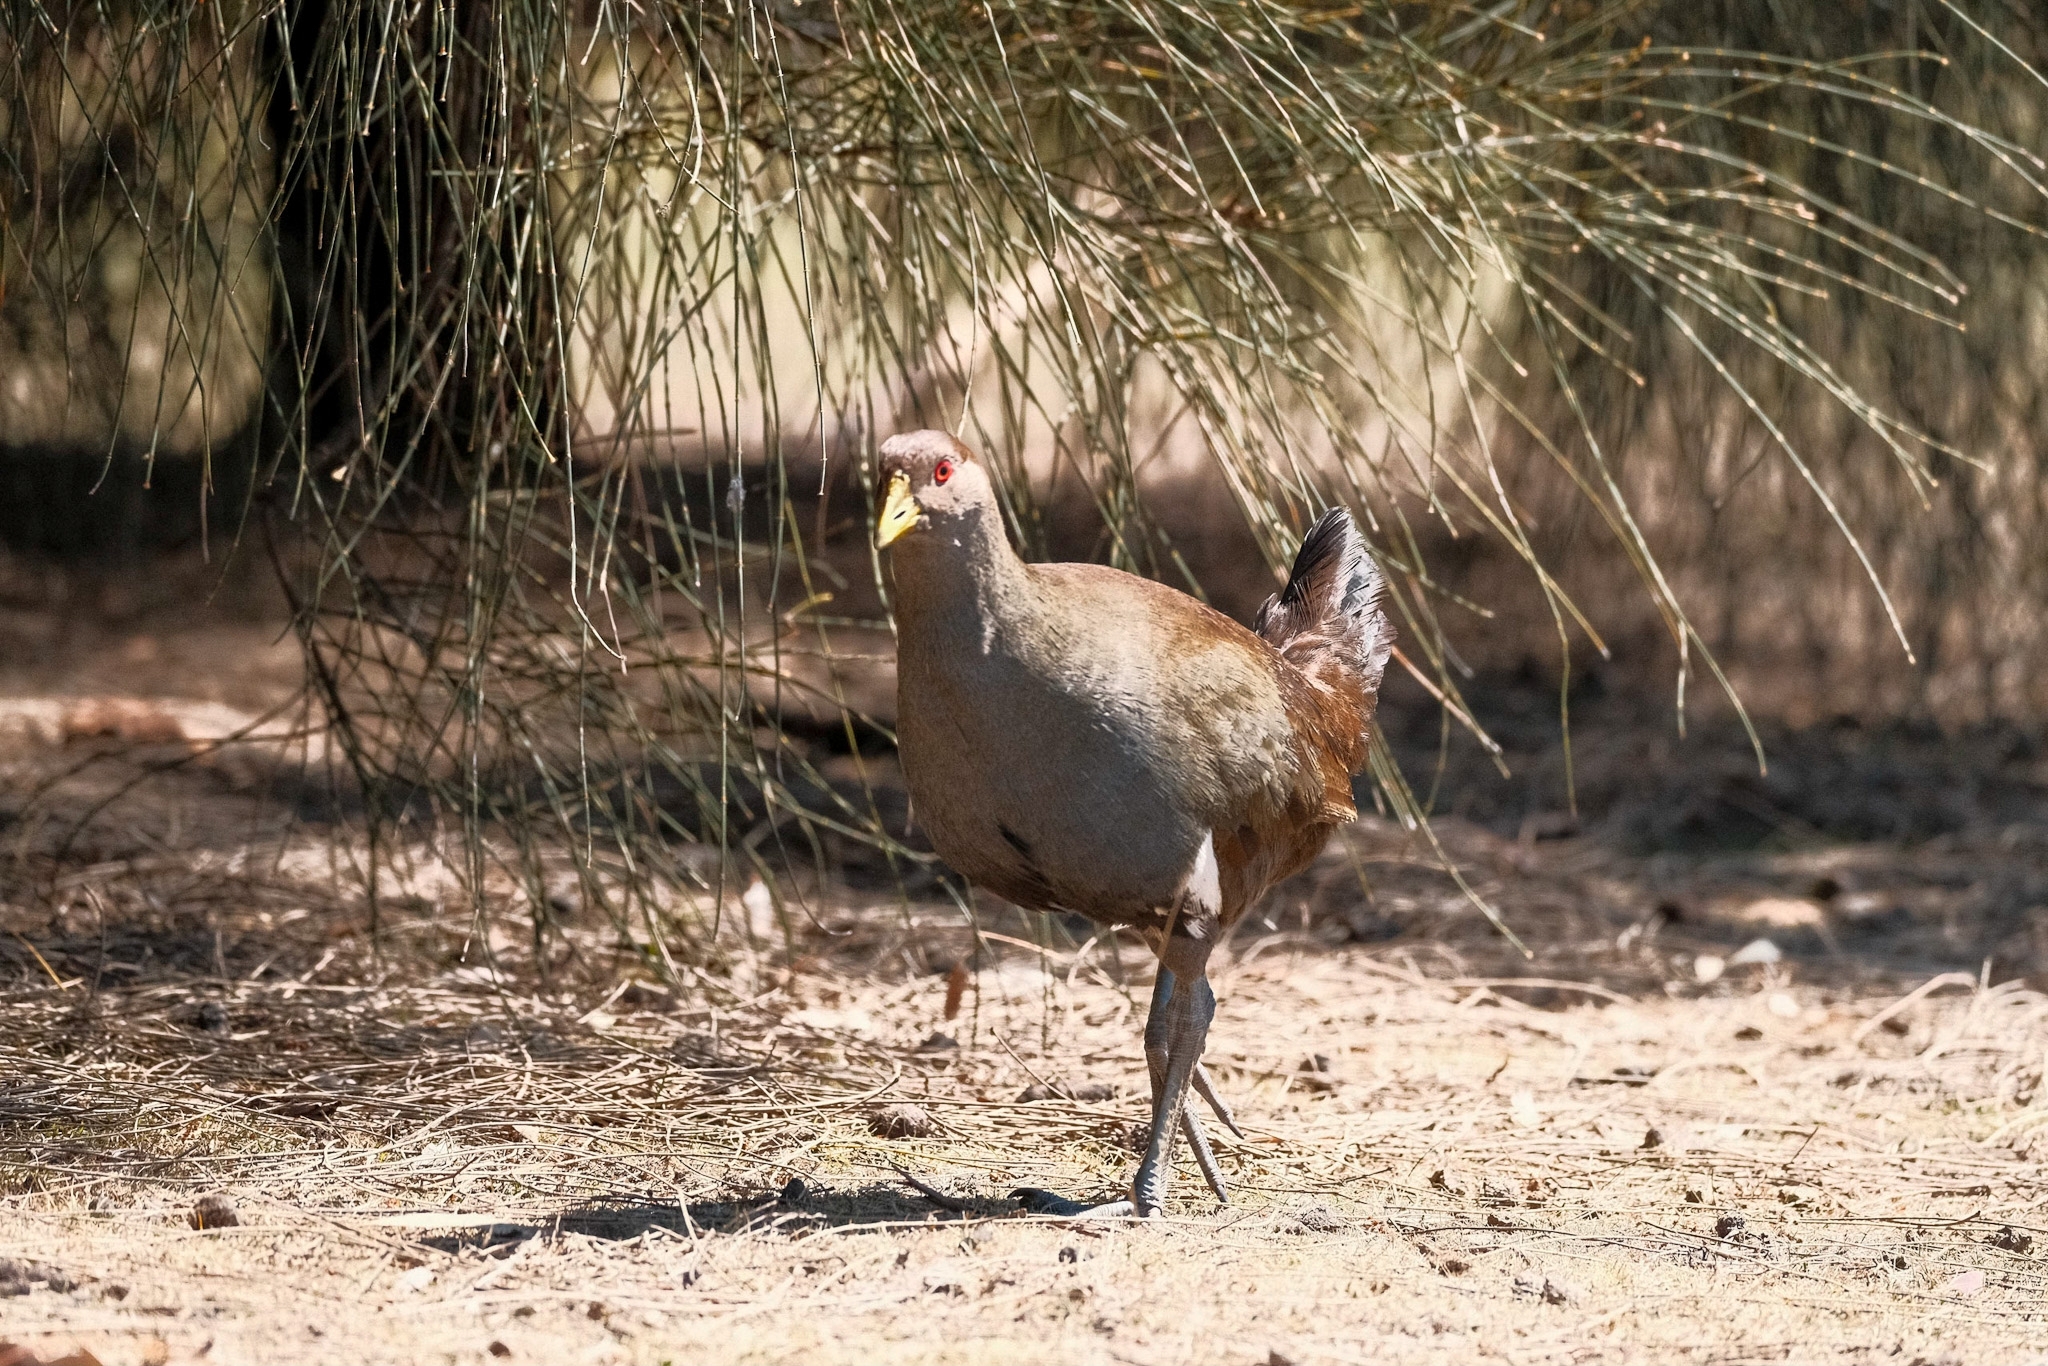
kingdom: Animalia
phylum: Chordata
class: Aves
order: Gruiformes
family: Rallidae
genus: Gallinula
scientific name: Gallinula mortierii
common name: Tasmanian nativehen
